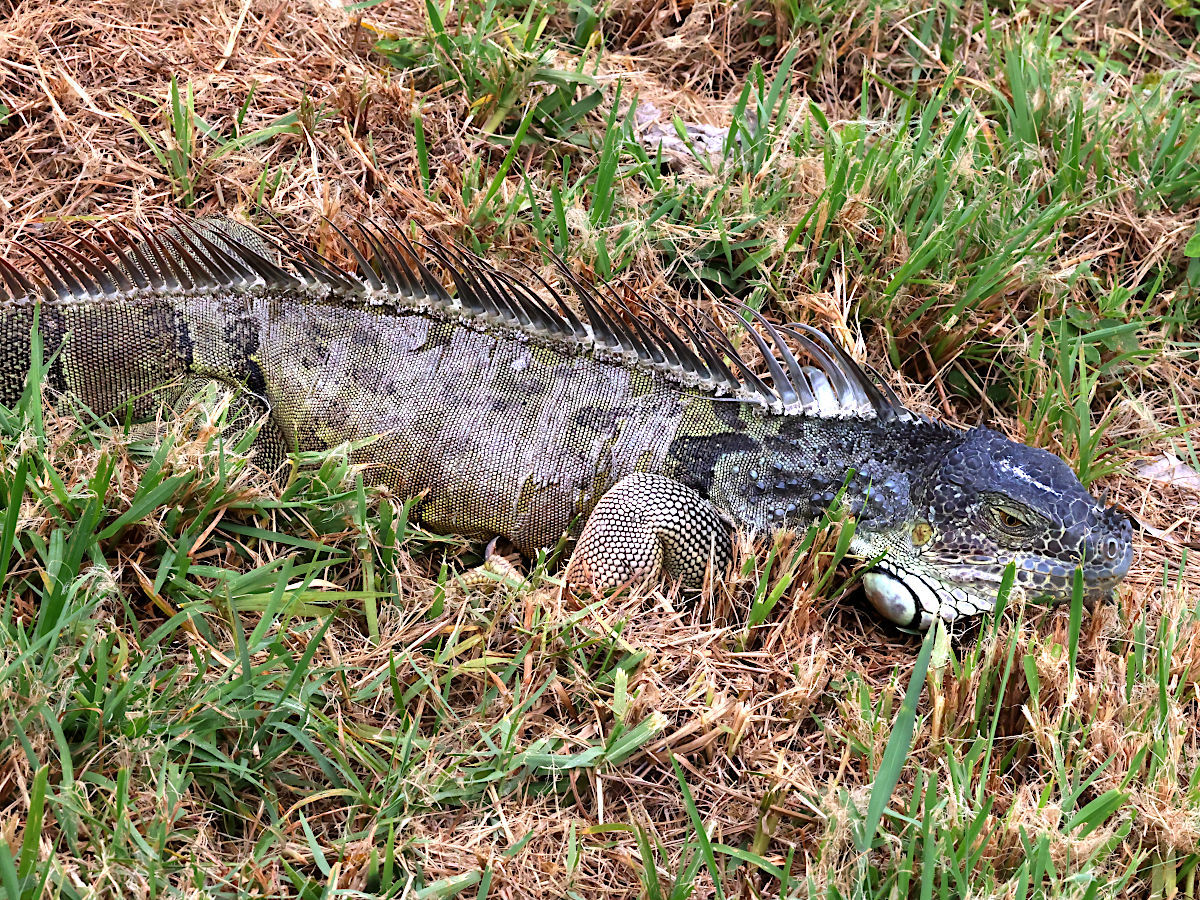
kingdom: Animalia
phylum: Chordata
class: Squamata
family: Iguanidae
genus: Iguana
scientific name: Iguana iguana
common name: Green iguana
